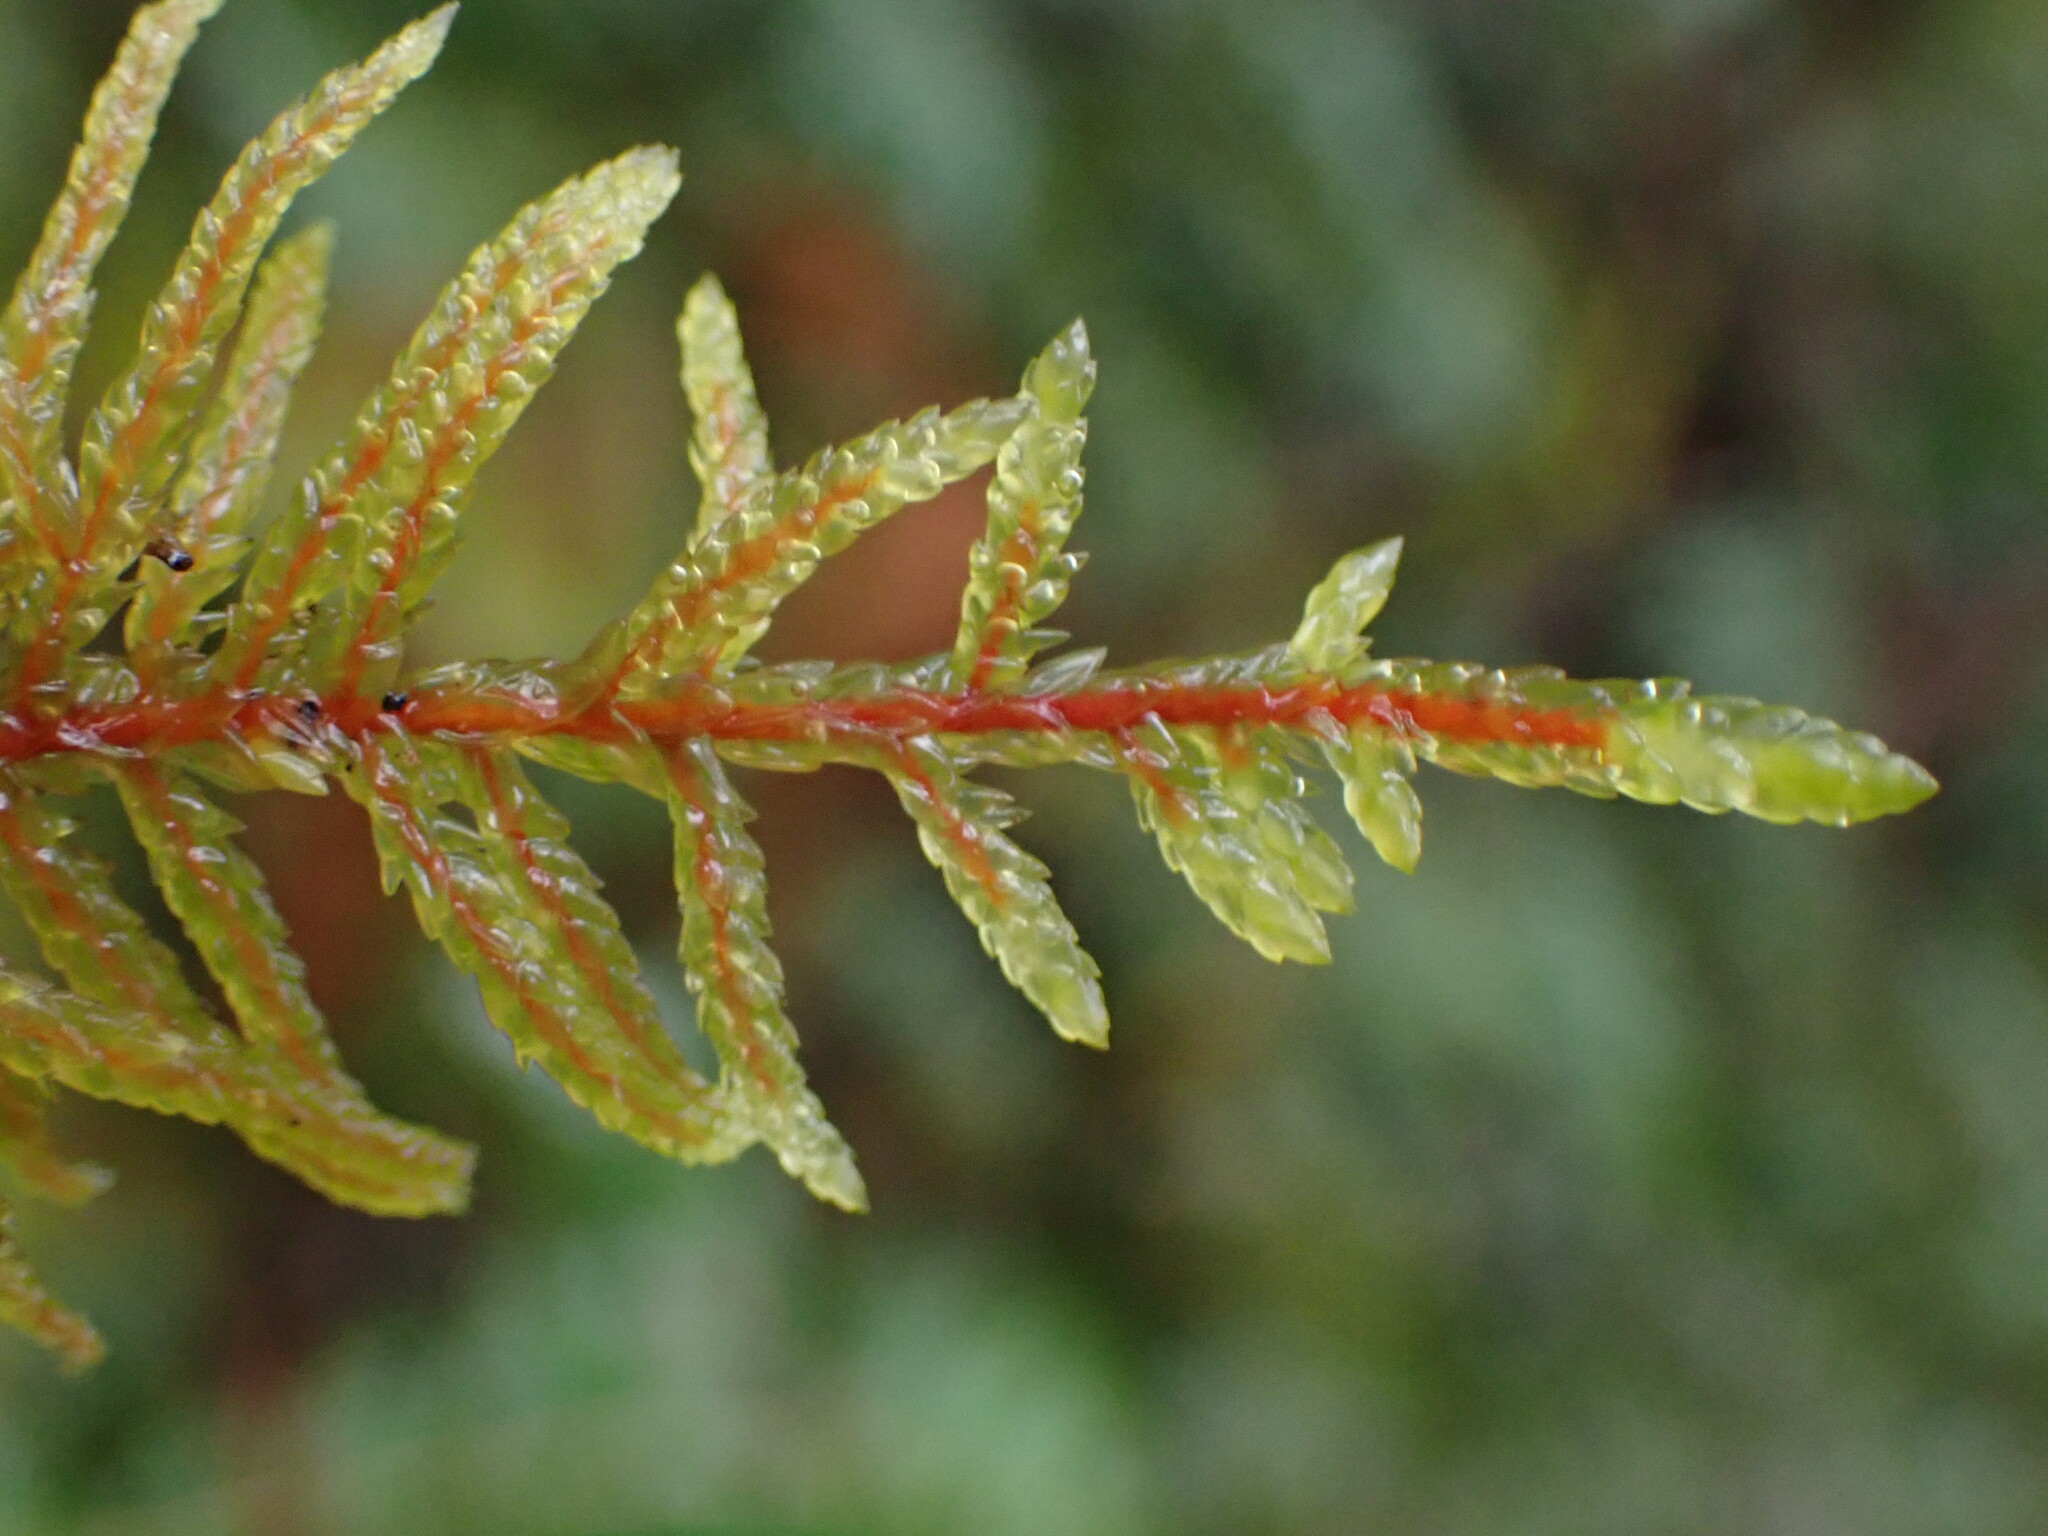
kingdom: Plantae
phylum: Bryophyta
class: Bryopsida
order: Hypnales
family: Hylocomiaceae
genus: Pleurozium
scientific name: Pleurozium schreberi
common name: Red-stemmed feather moss
